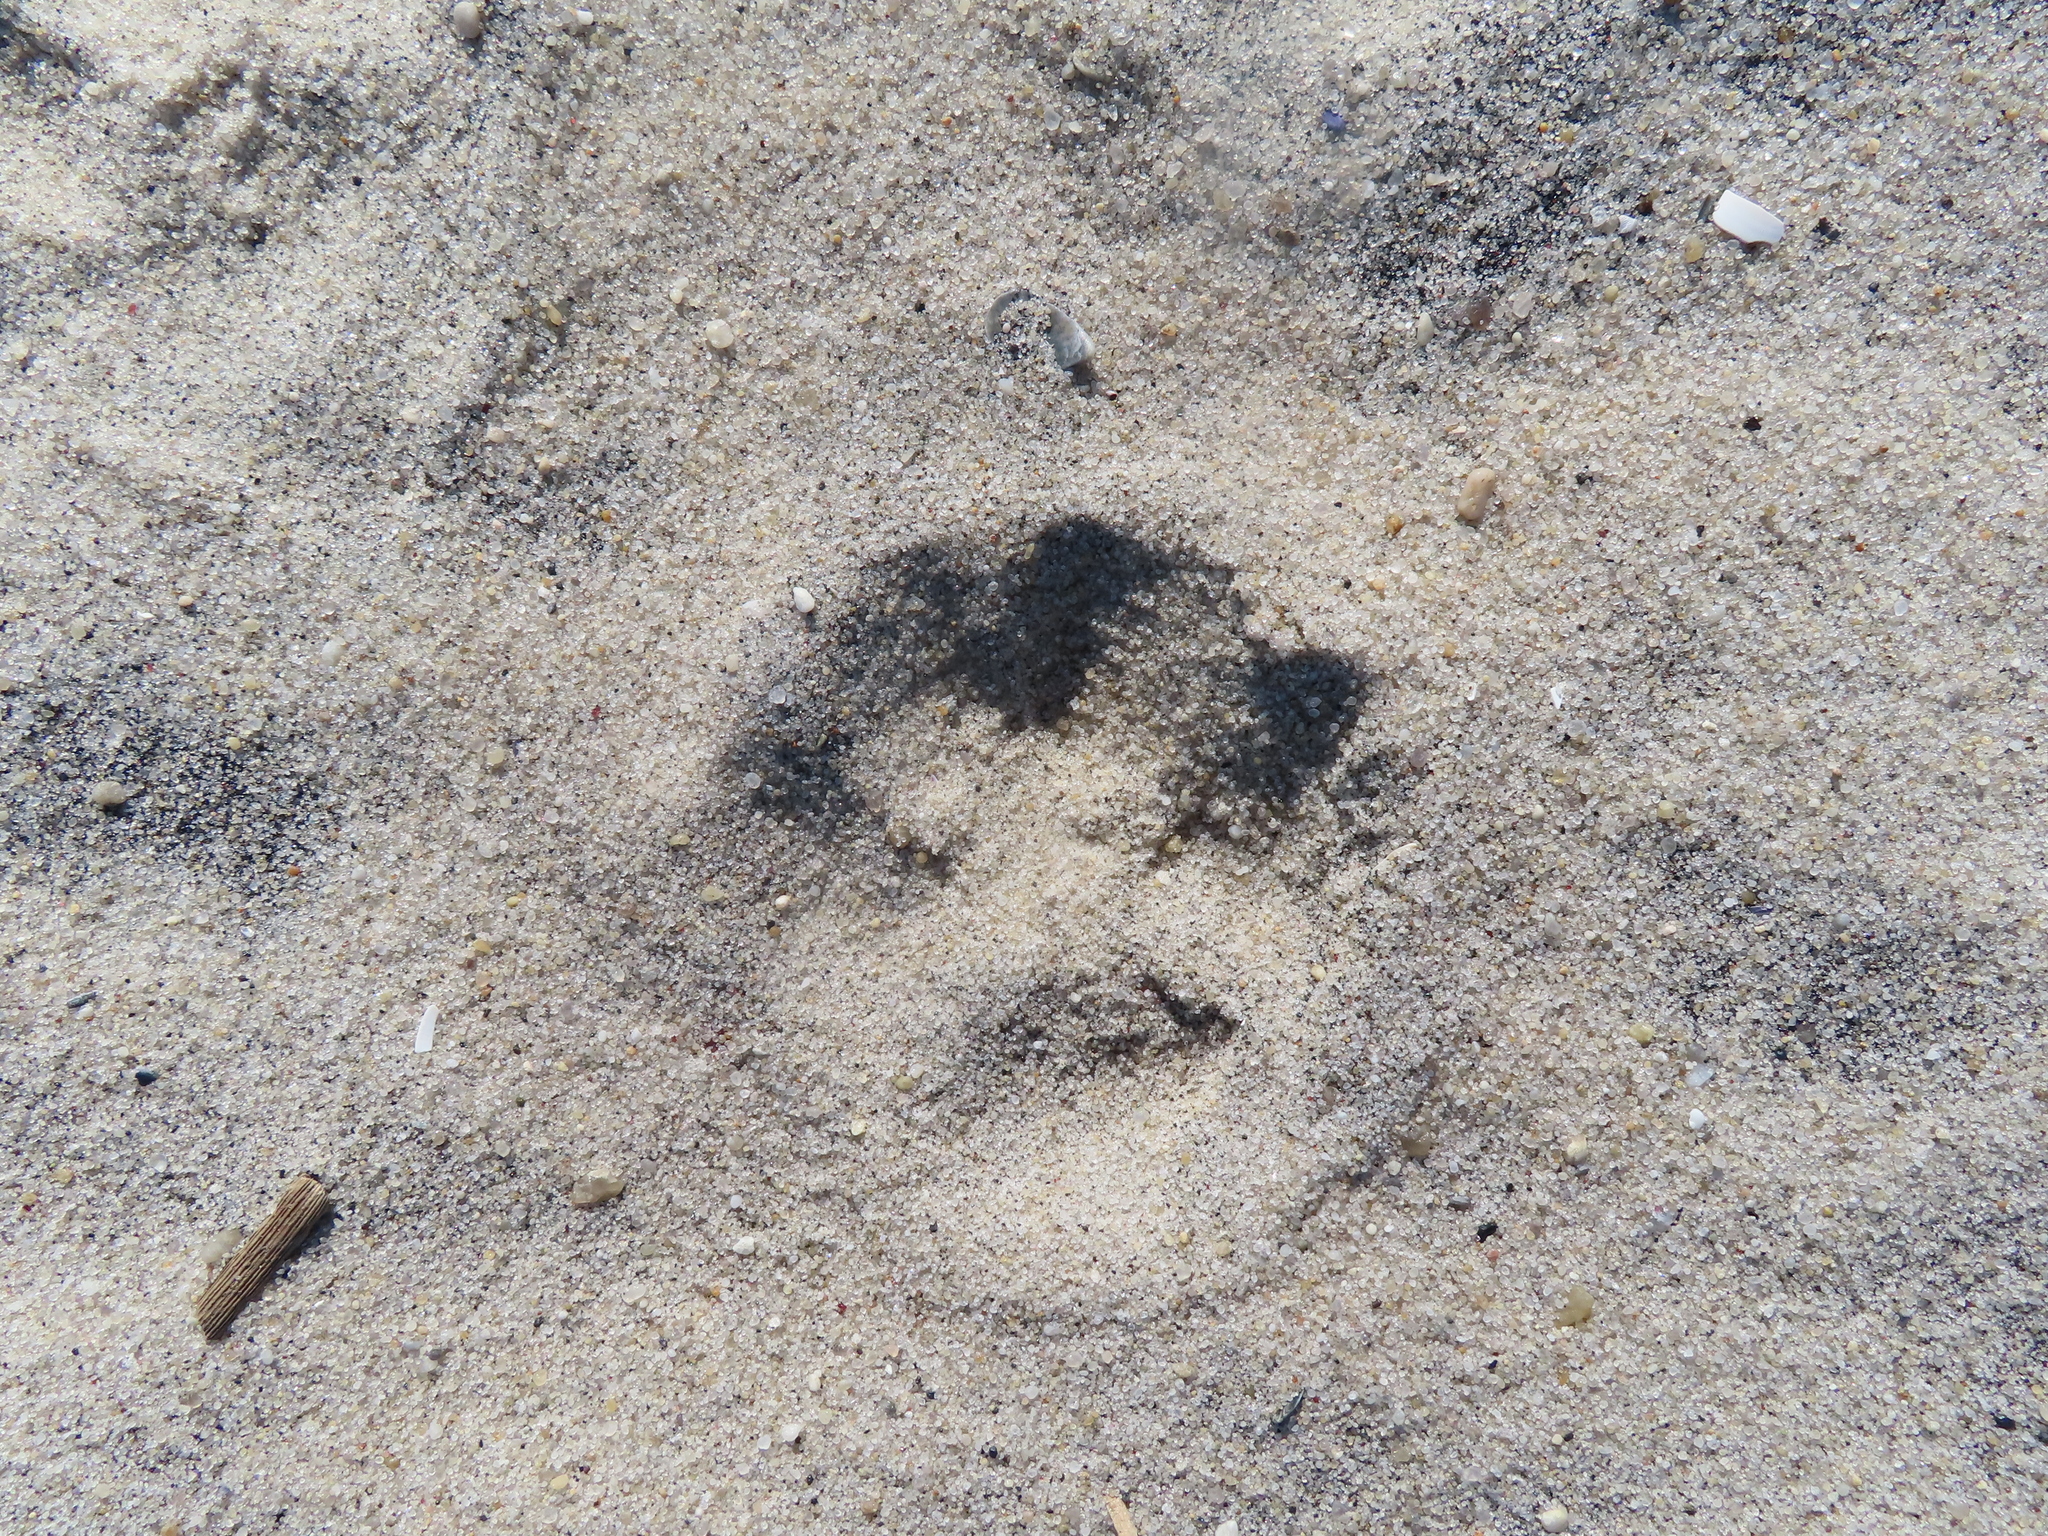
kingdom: Animalia
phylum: Chordata
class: Mammalia
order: Carnivora
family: Canidae
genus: Vulpes
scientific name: Vulpes vulpes
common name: Red fox
